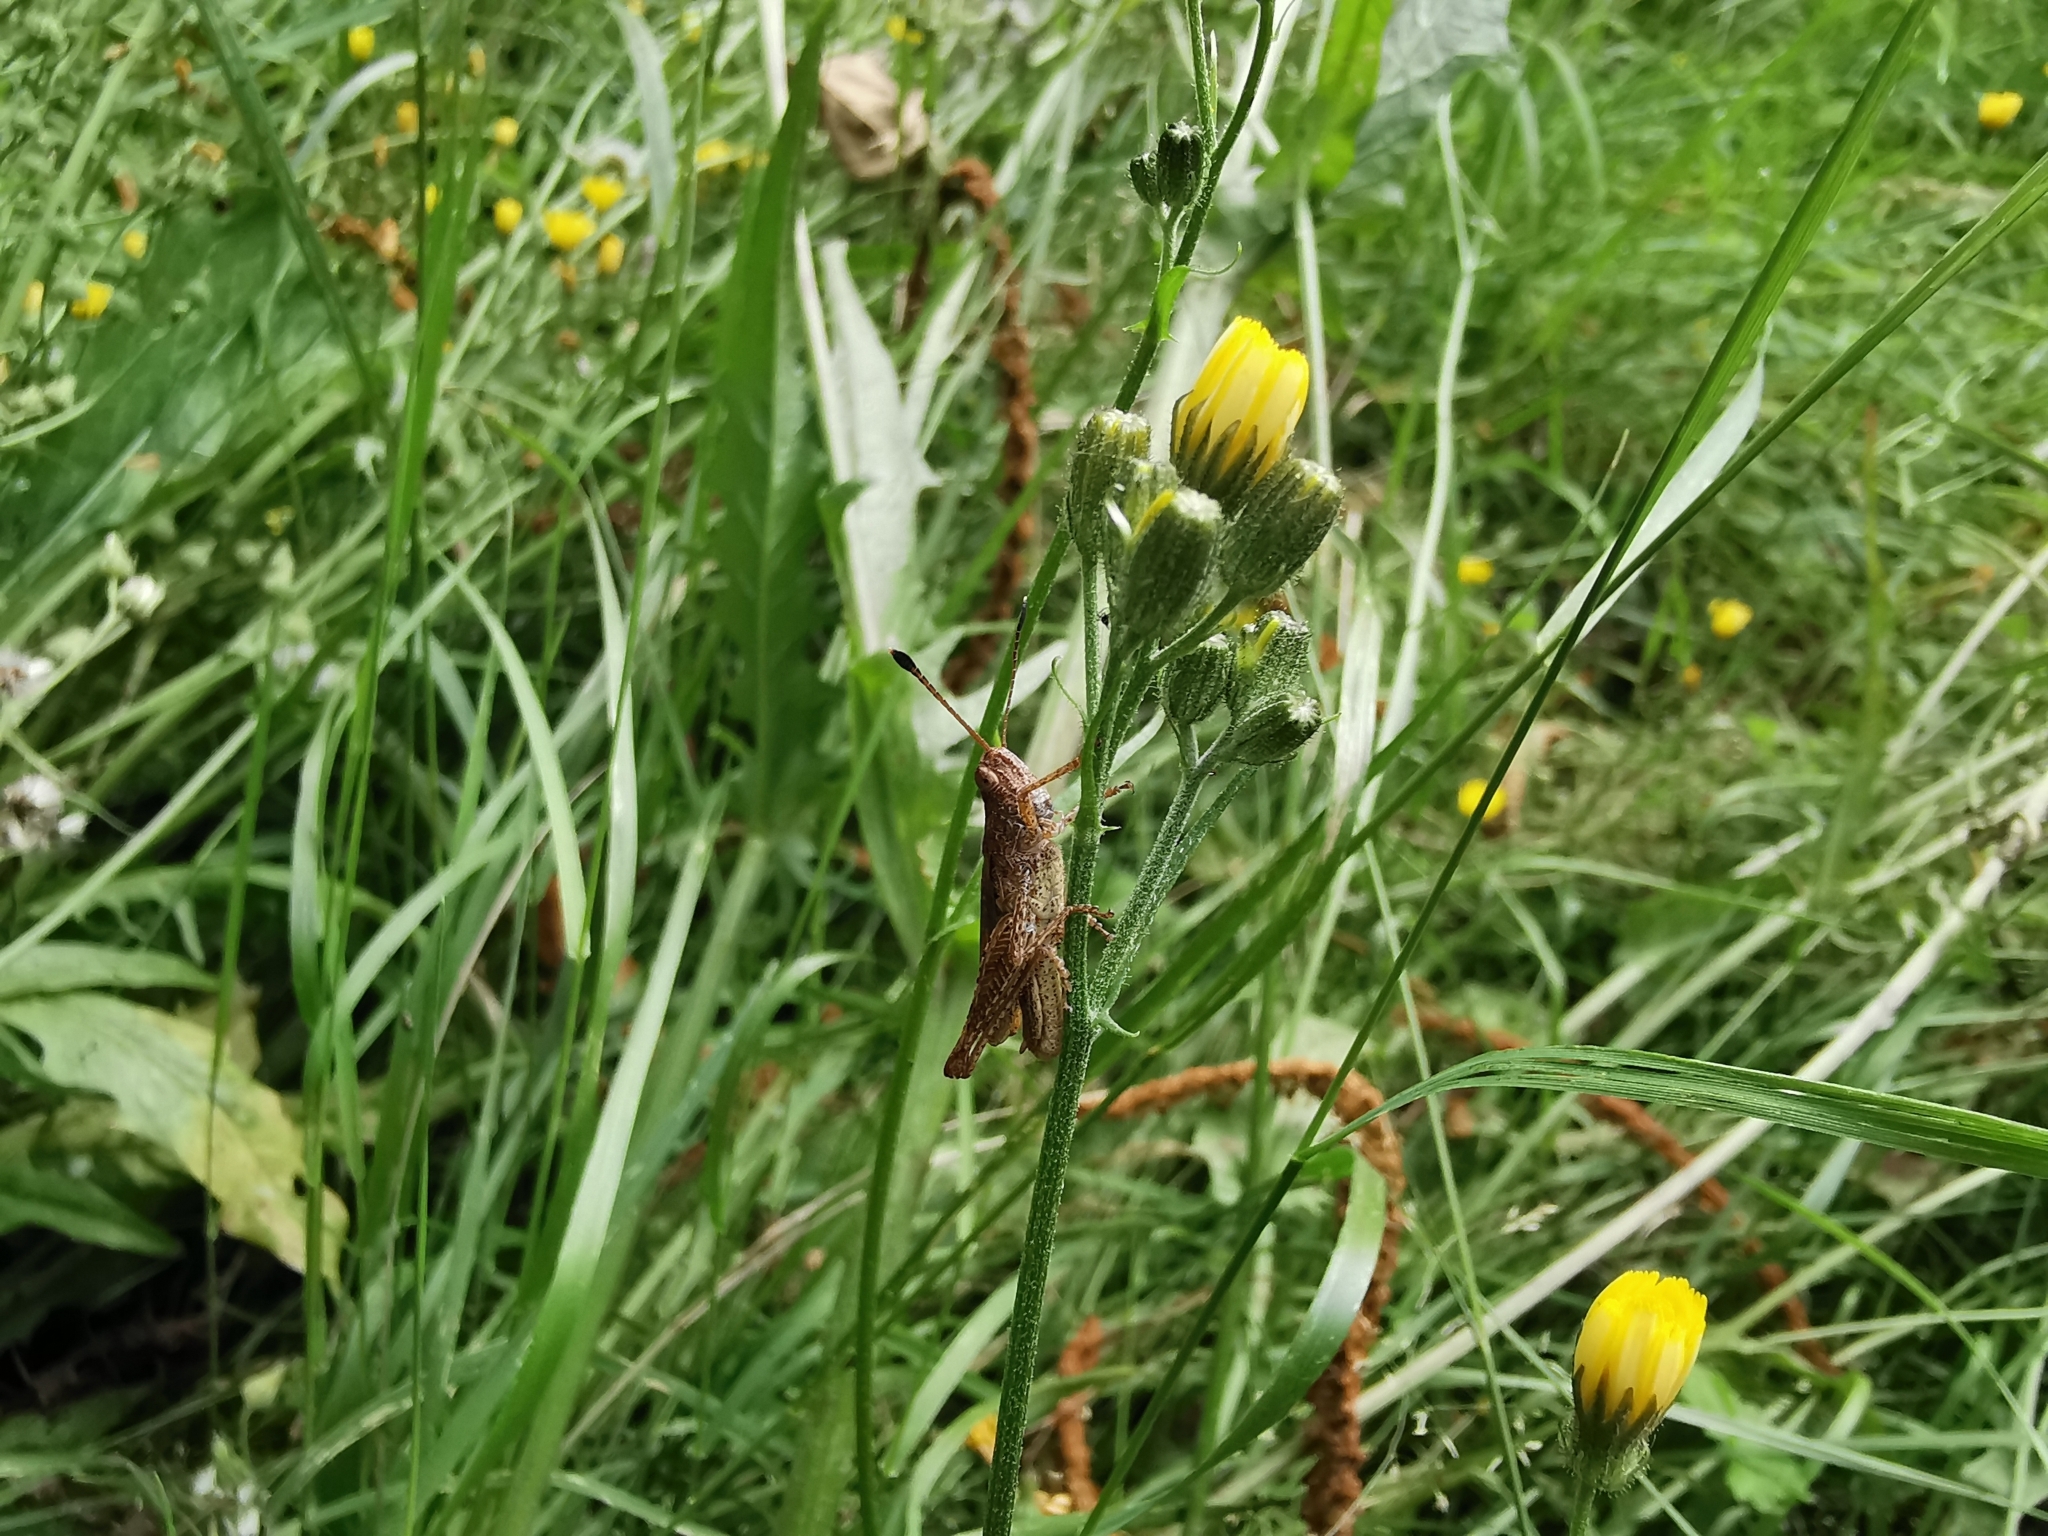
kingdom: Animalia
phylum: Arthropoda
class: Insecta
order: Orthoptera
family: Acrididae
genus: Gomphocerippus
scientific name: Gomphocerippus rufus
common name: Rufous grasshopper
